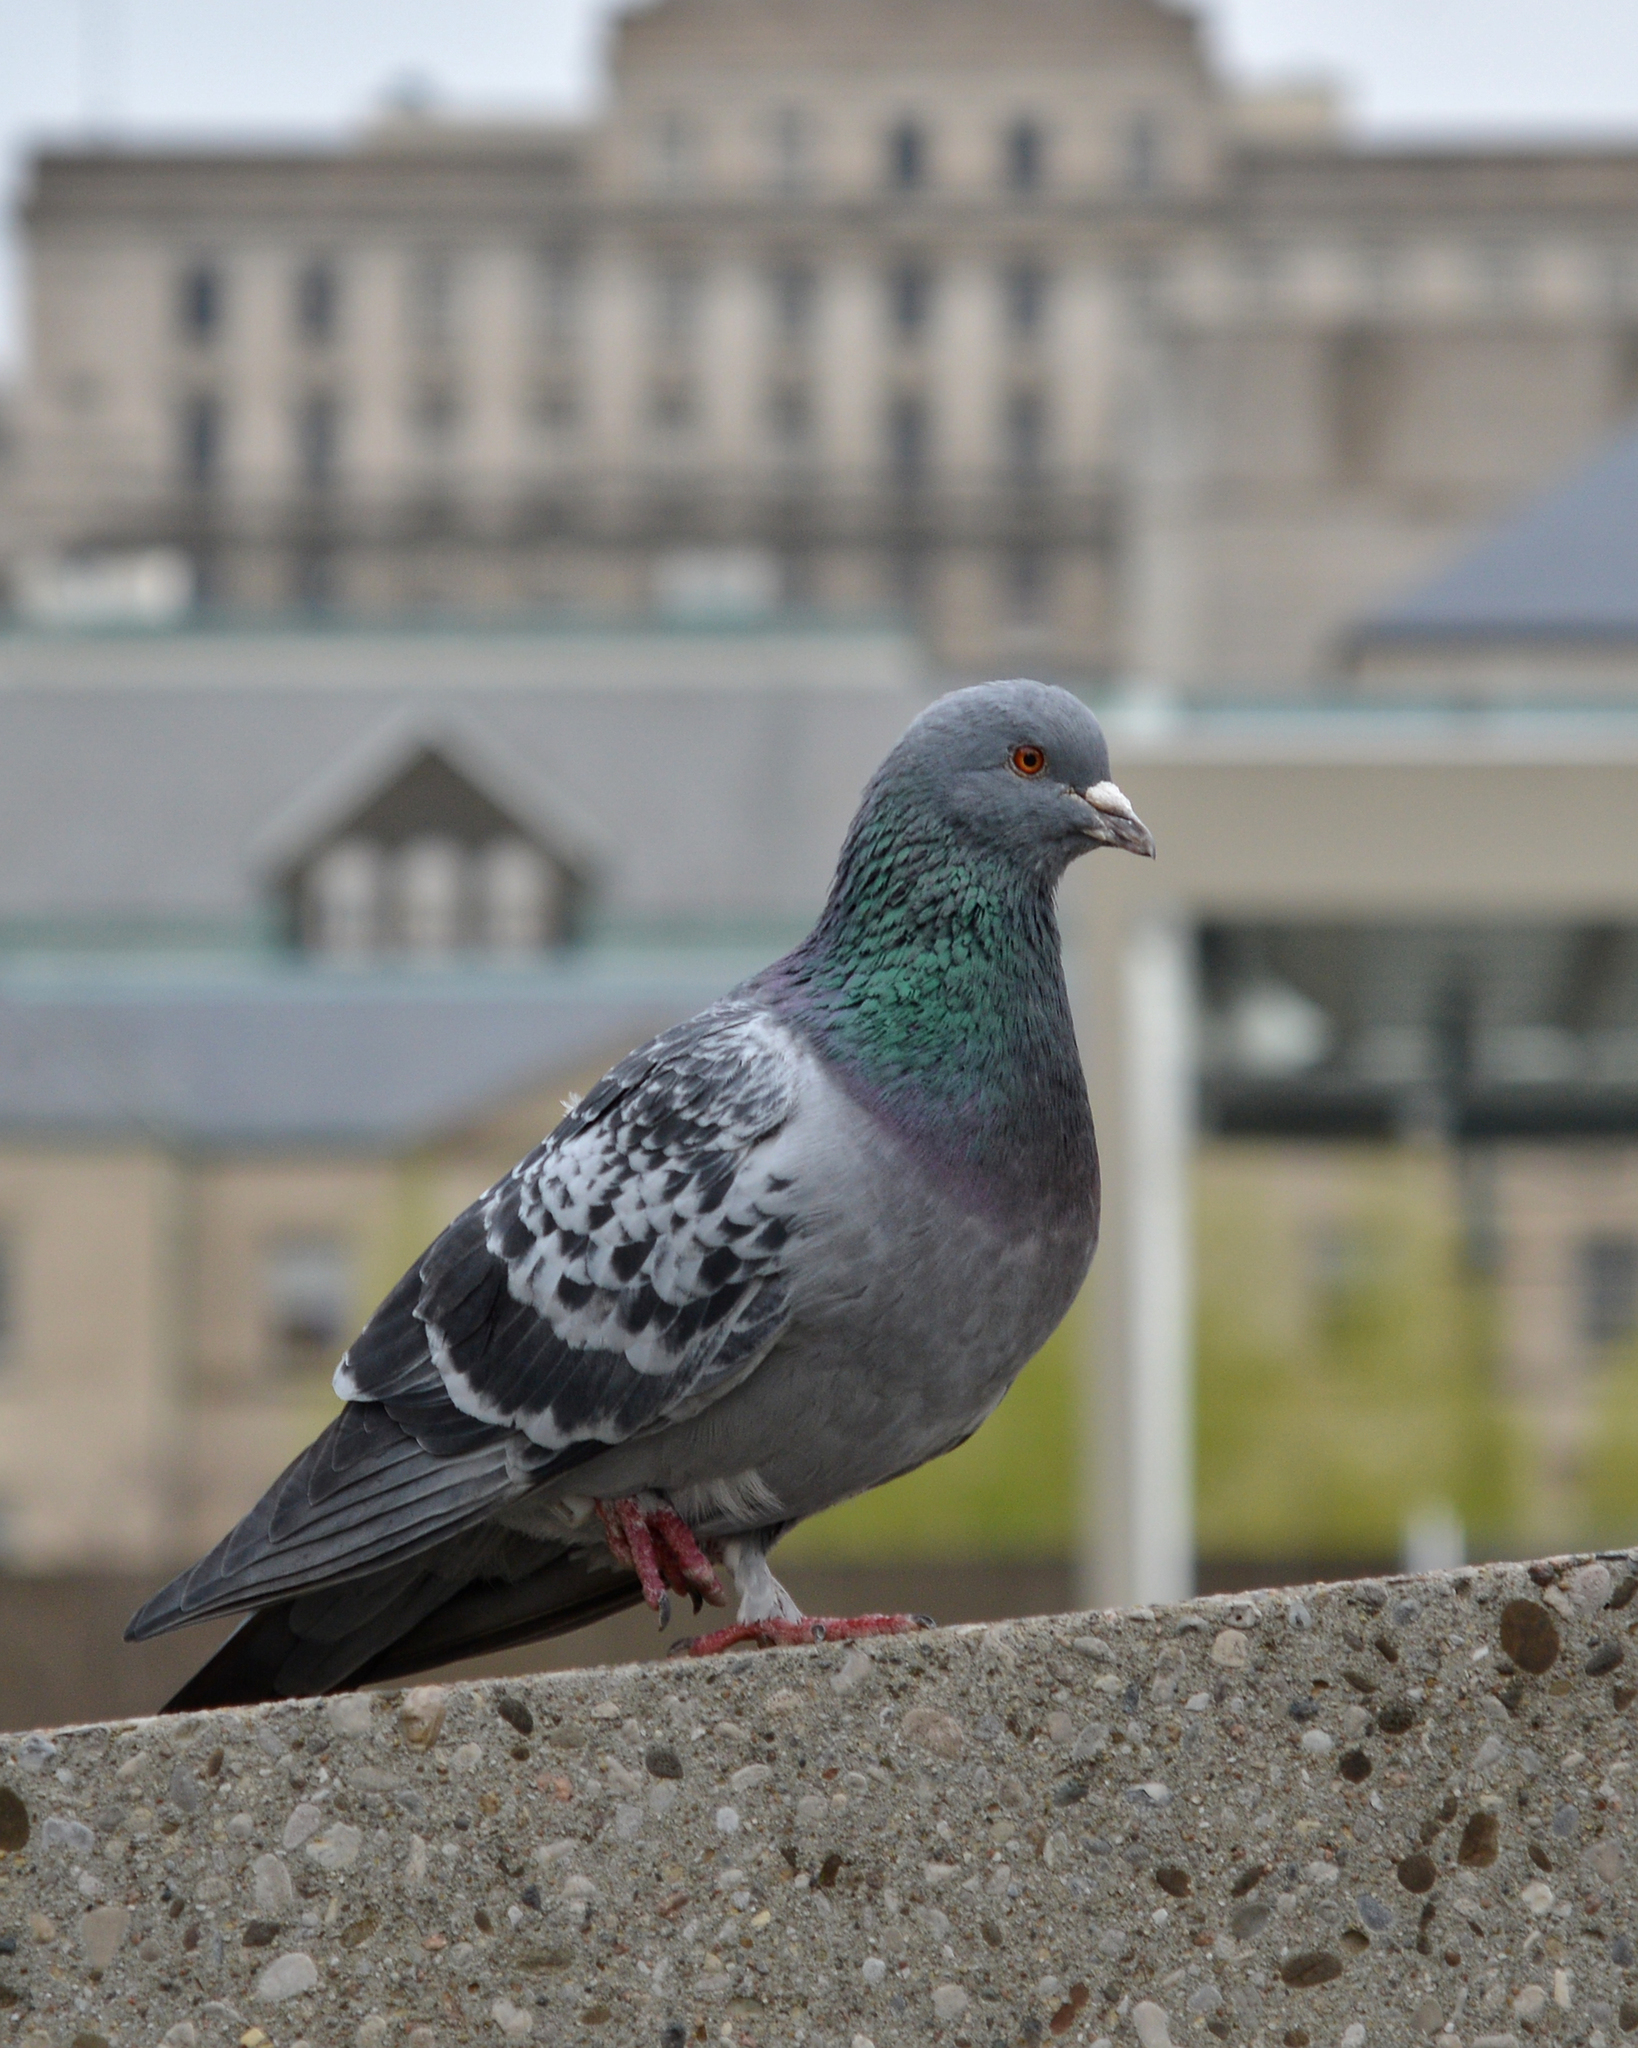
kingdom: Animalia
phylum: Chordata
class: Aves
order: Columbiformes
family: Columbidae
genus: Columba
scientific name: Columba livia
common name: Rock pigeon
